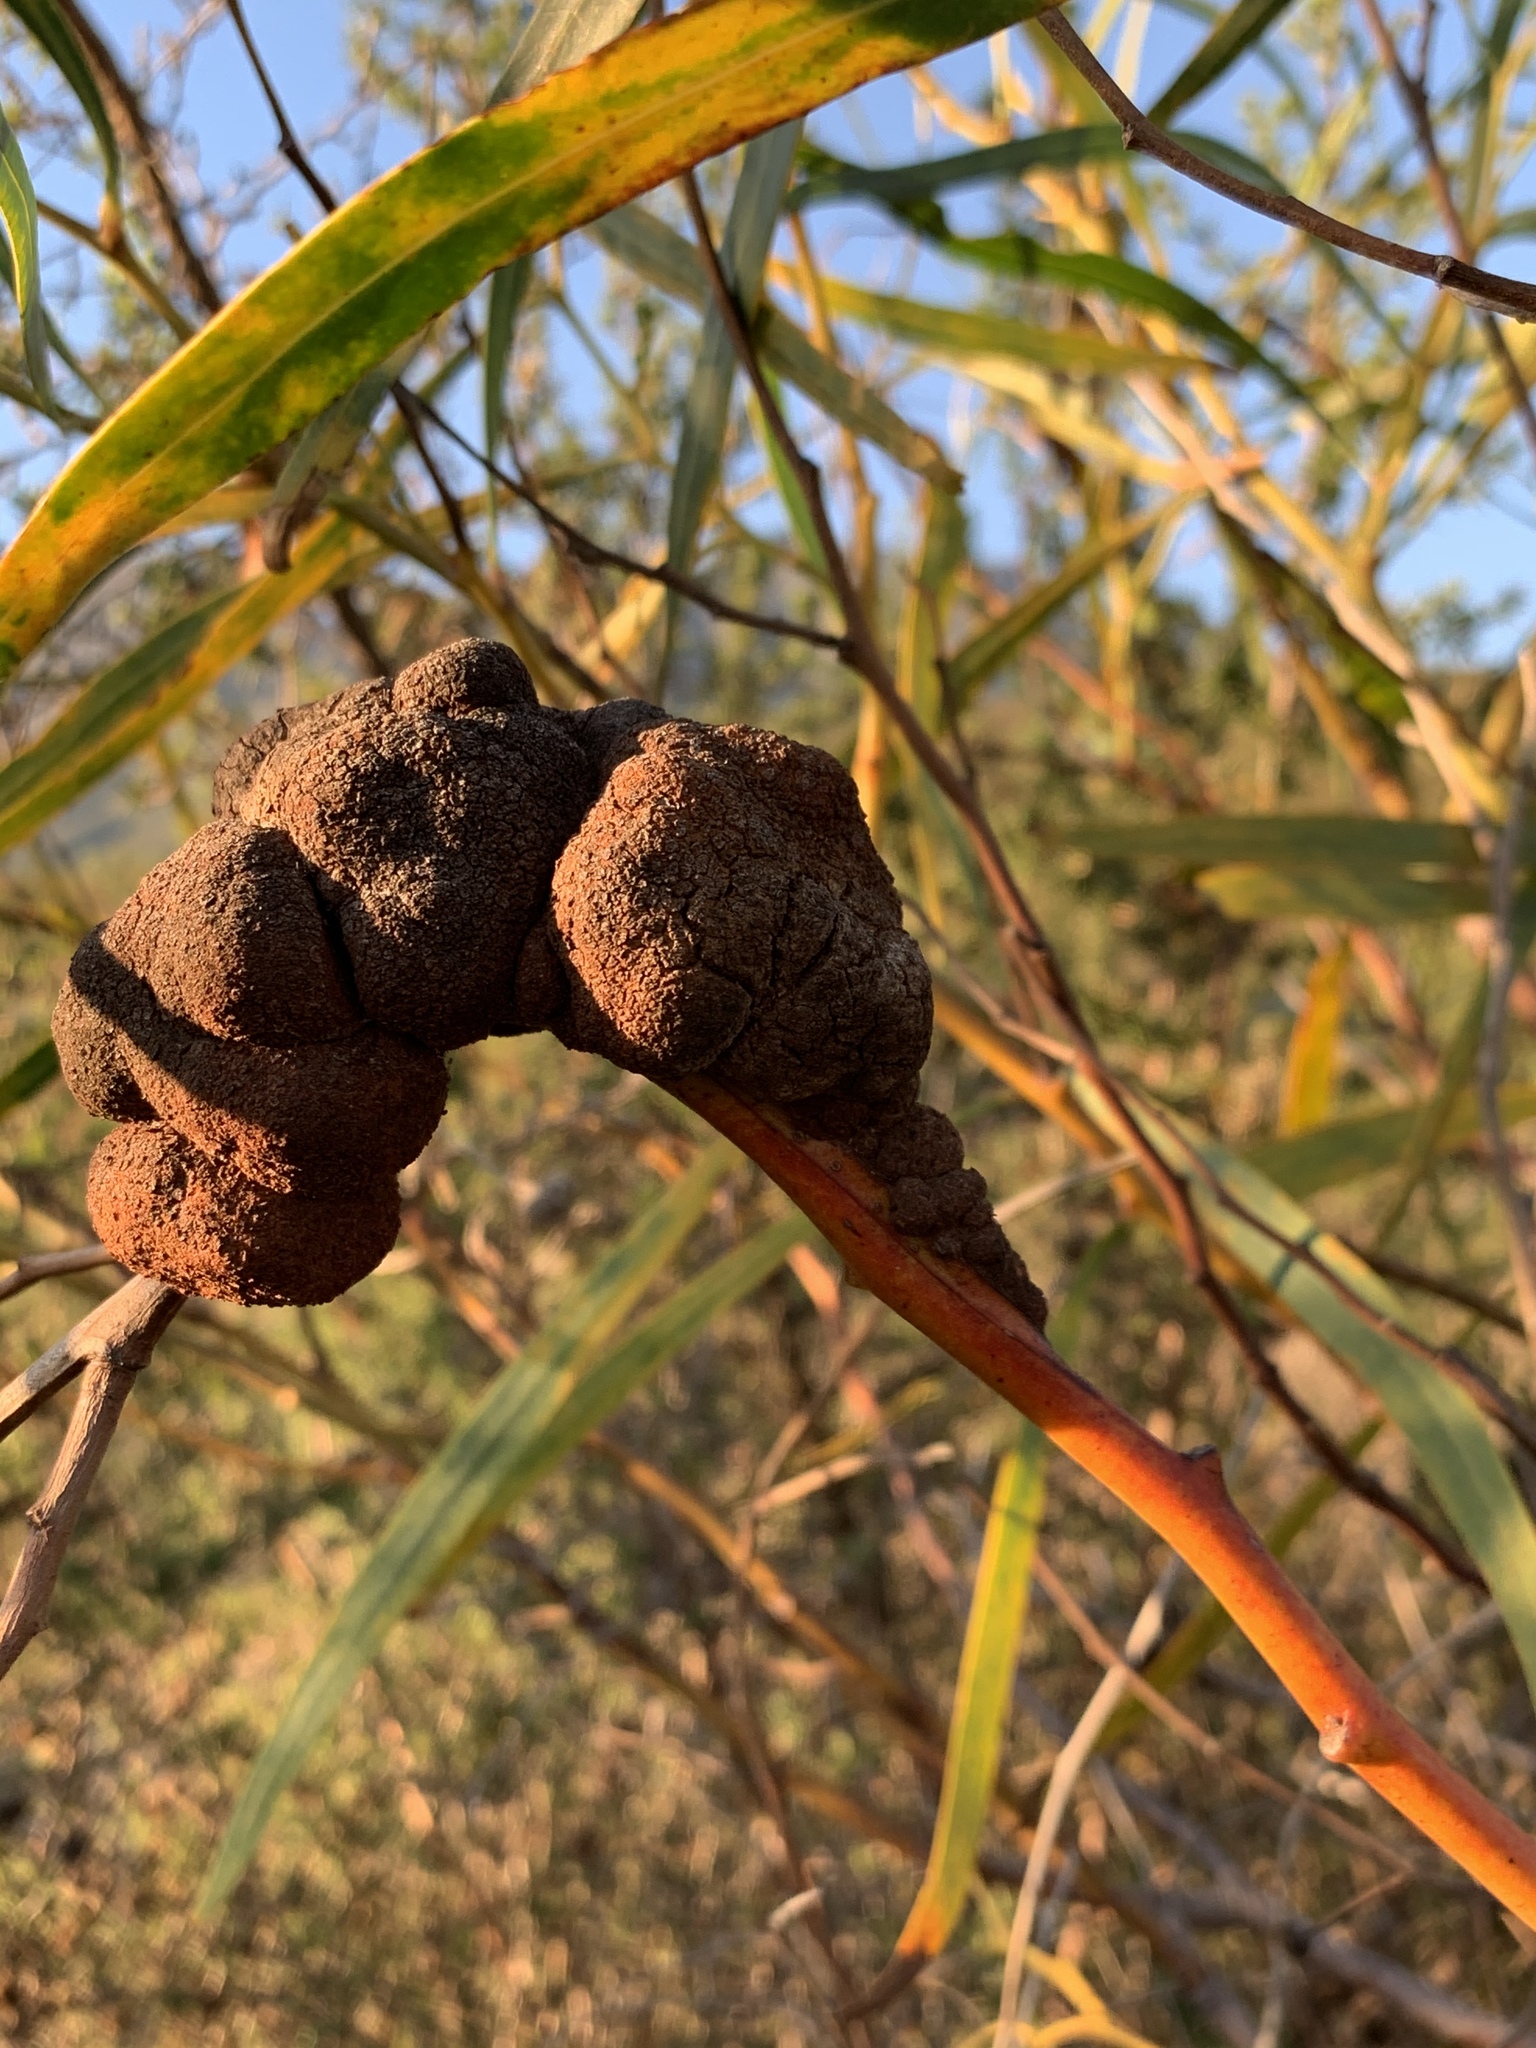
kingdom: Fungi
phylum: Basidiomycota
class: Pucciniomycetes
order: Pucciniales
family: Uromycladiaceae
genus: Uromycladium
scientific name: Uromycladium morrisii
